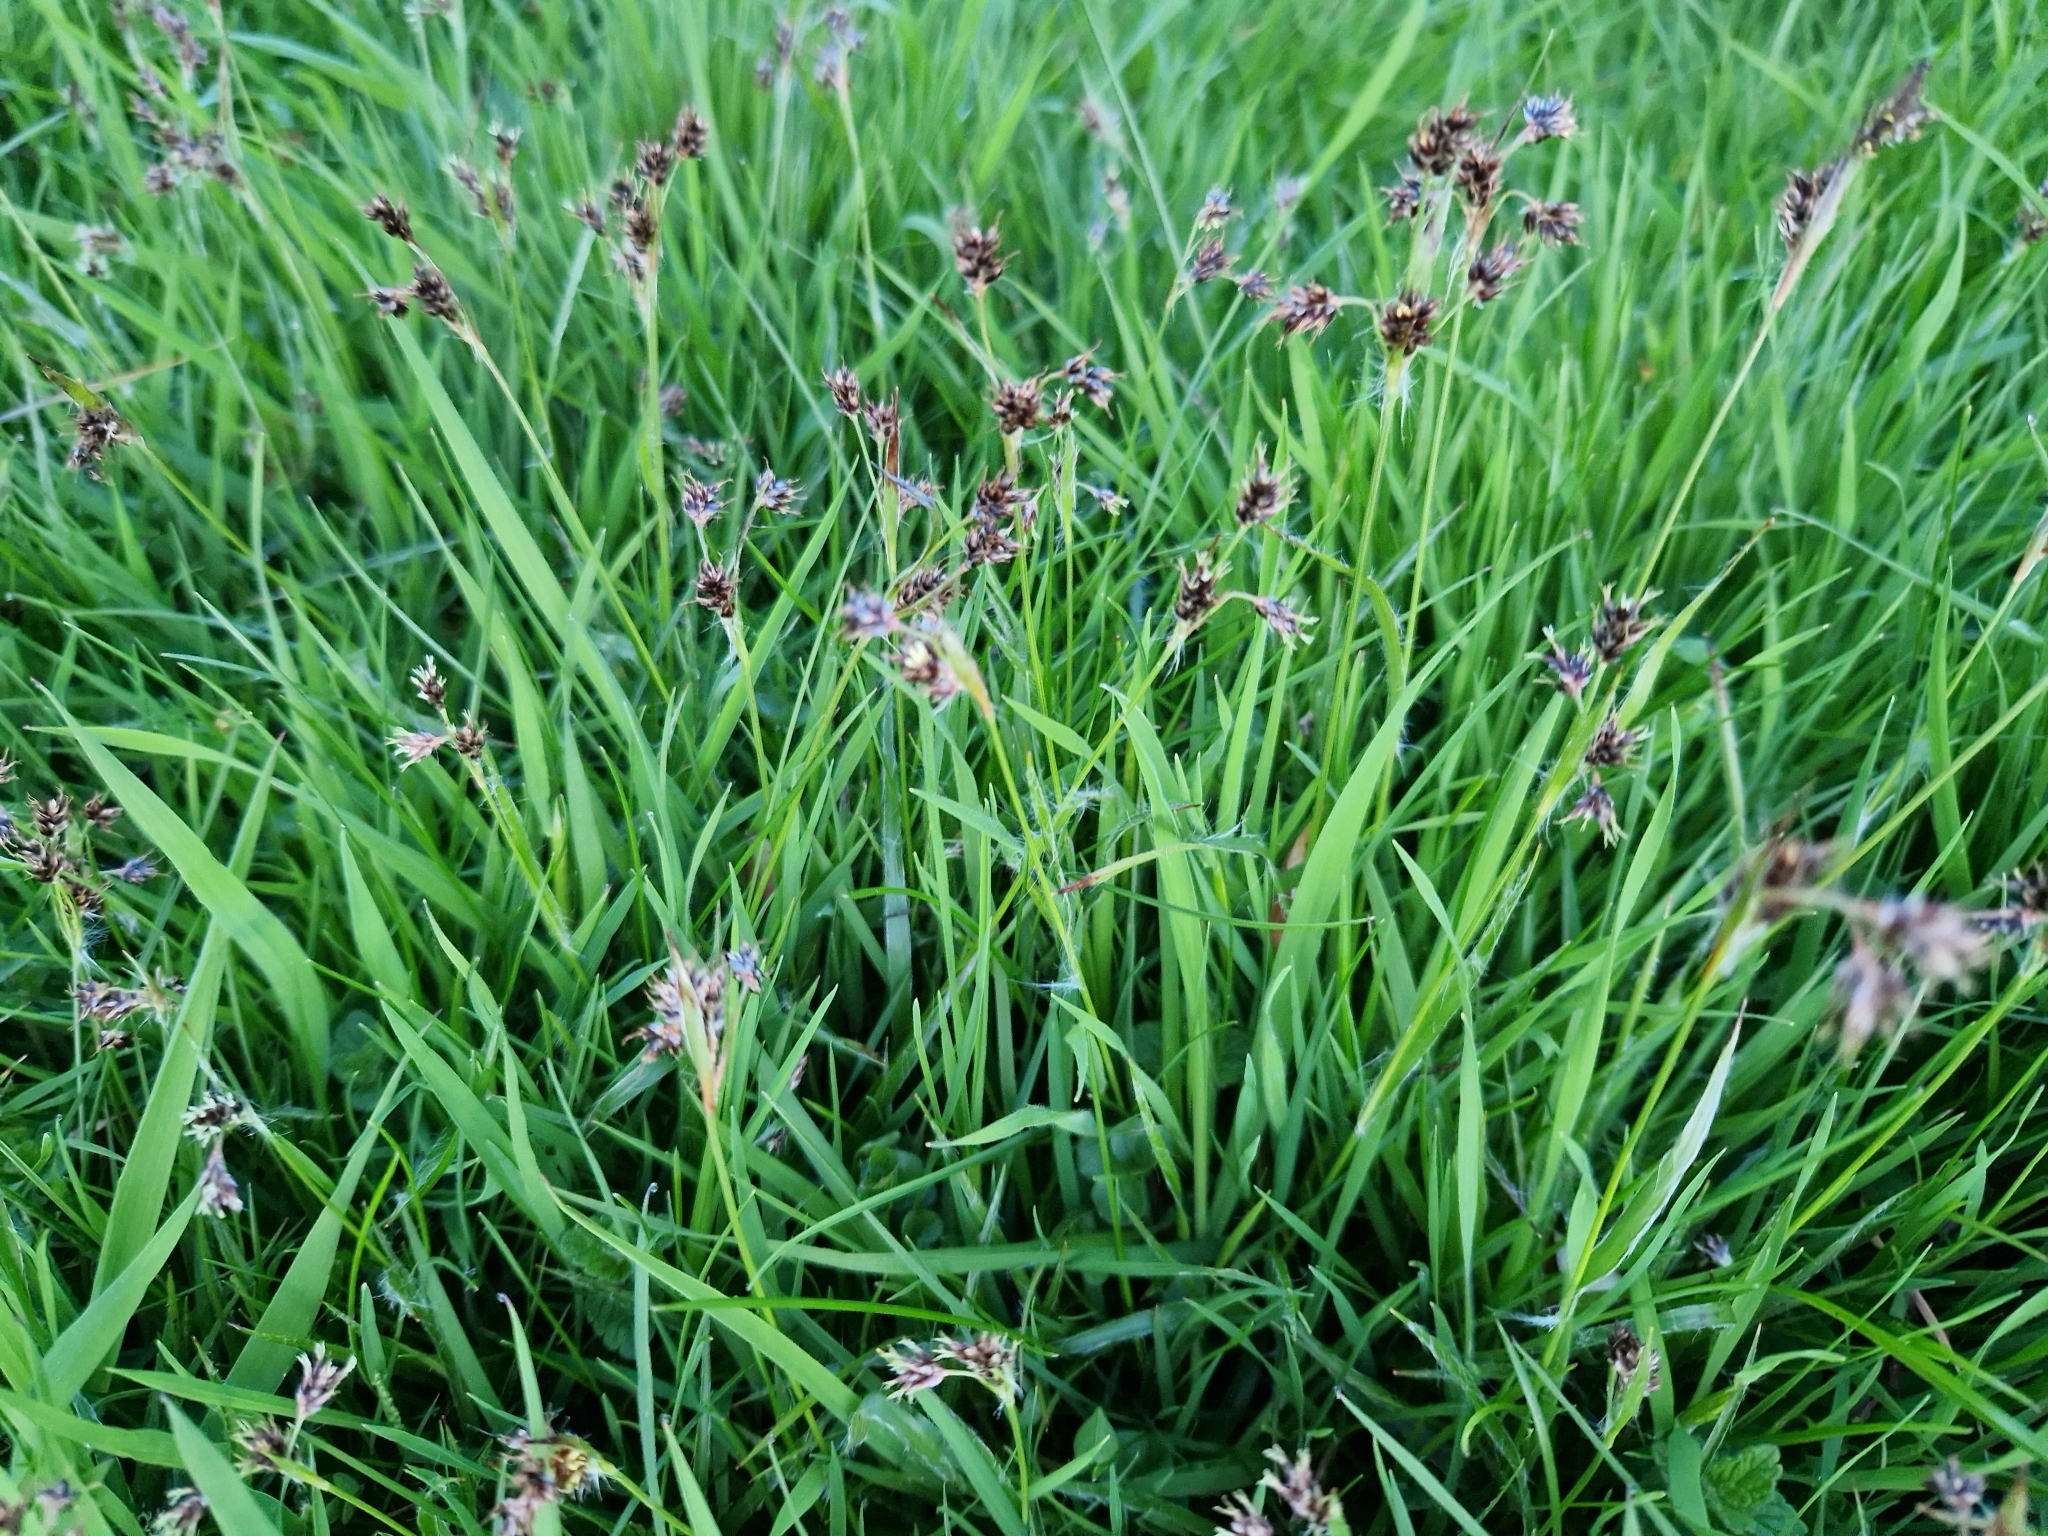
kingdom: Plantae
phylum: Tracheophyta
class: Liliopsida
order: Poales
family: Juncaceae
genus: Luzula
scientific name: Luzula campestris
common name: Field wood-rush
